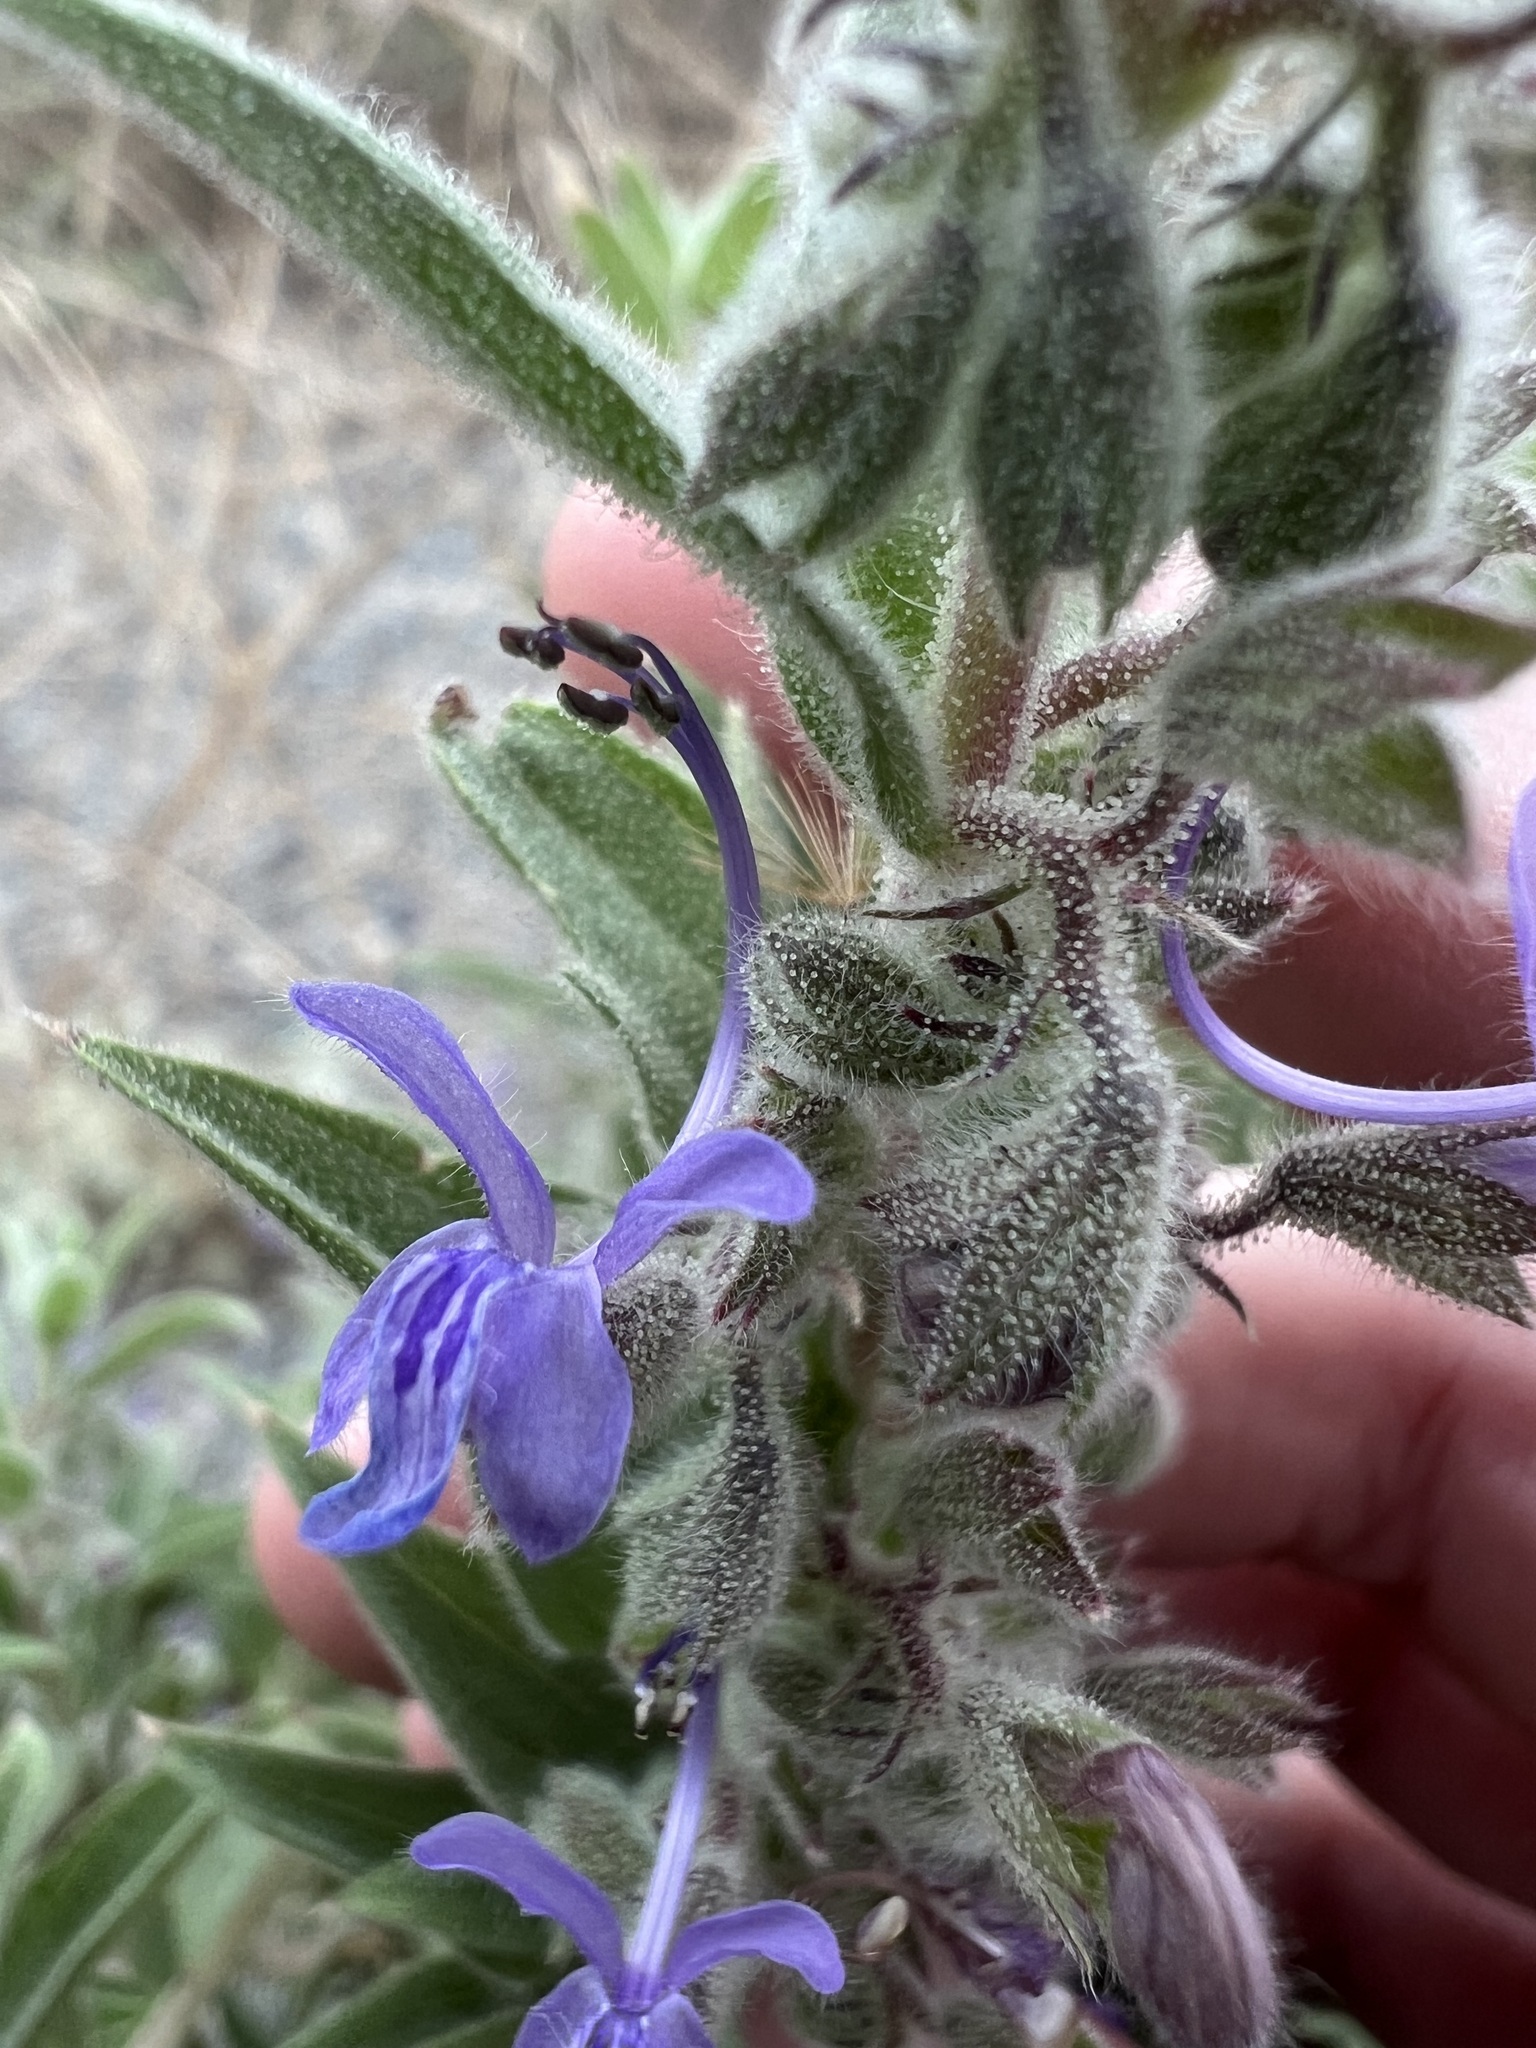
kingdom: Plantae
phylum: Tracheophyta
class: Magnoliopsida
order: Lamiales
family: Lamiaceae
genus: Trichostema
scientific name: Trichostema lanceolatum
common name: Vinegar-weed
